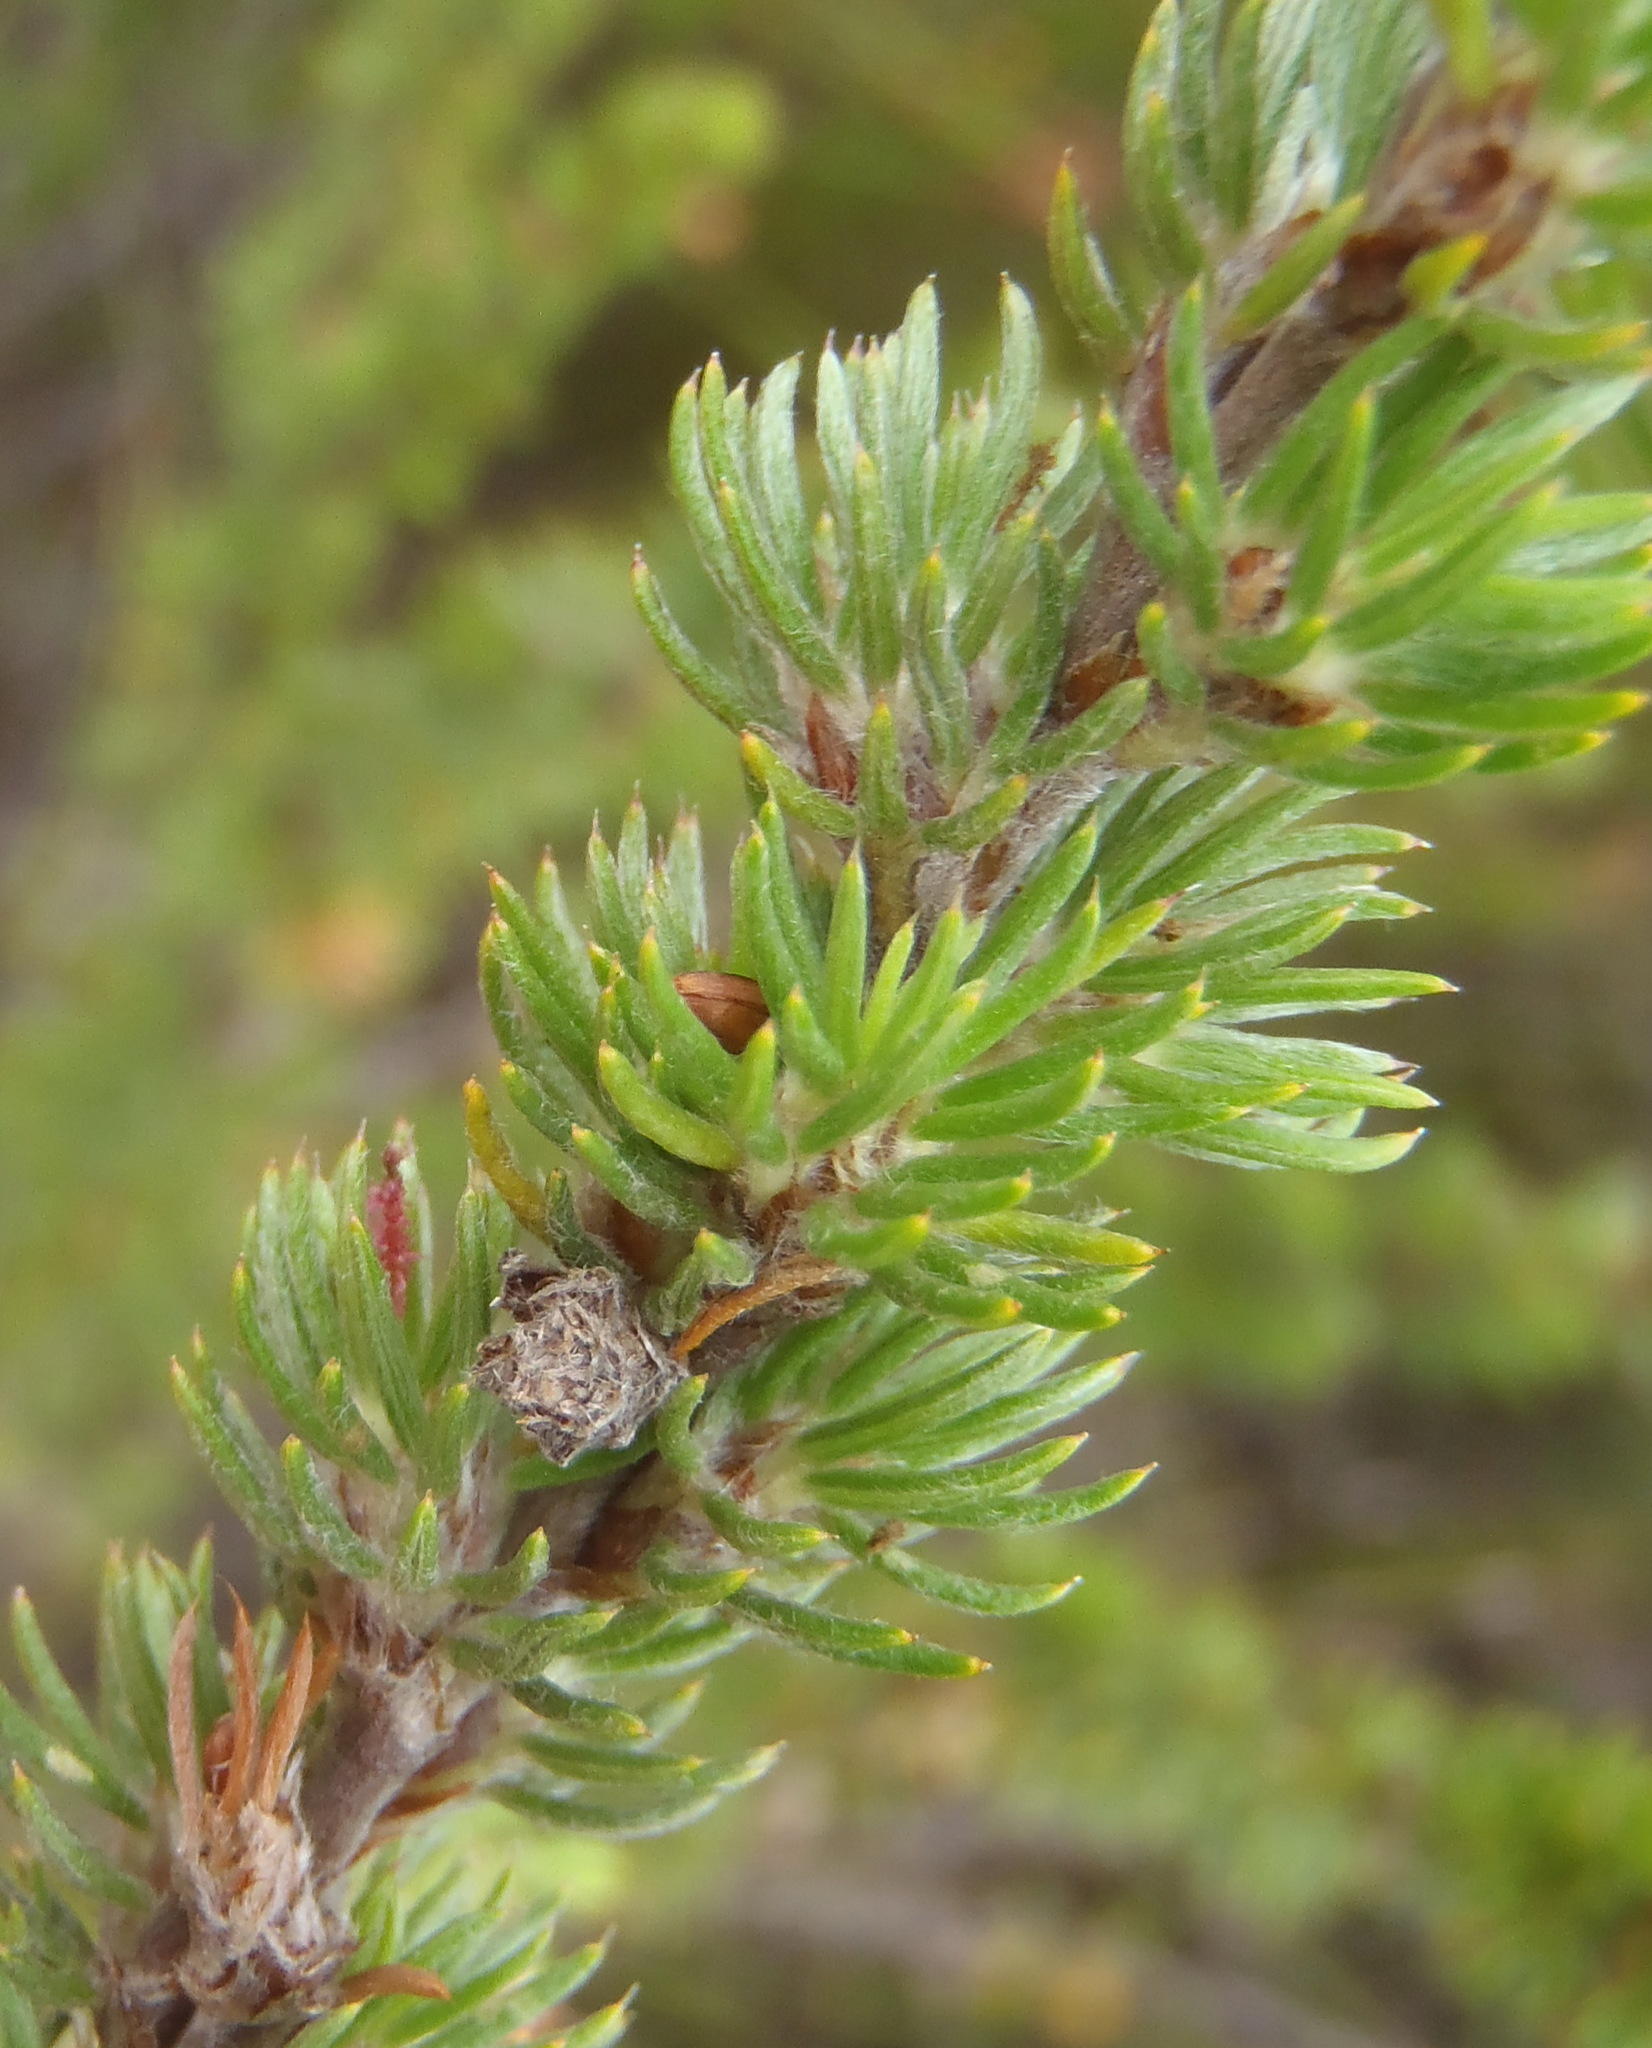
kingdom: Plantae
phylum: Tracheophyta
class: Magnoliopsida
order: Rosales
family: Rosaceae
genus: Cliffortia
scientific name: Cliffortia stricta
